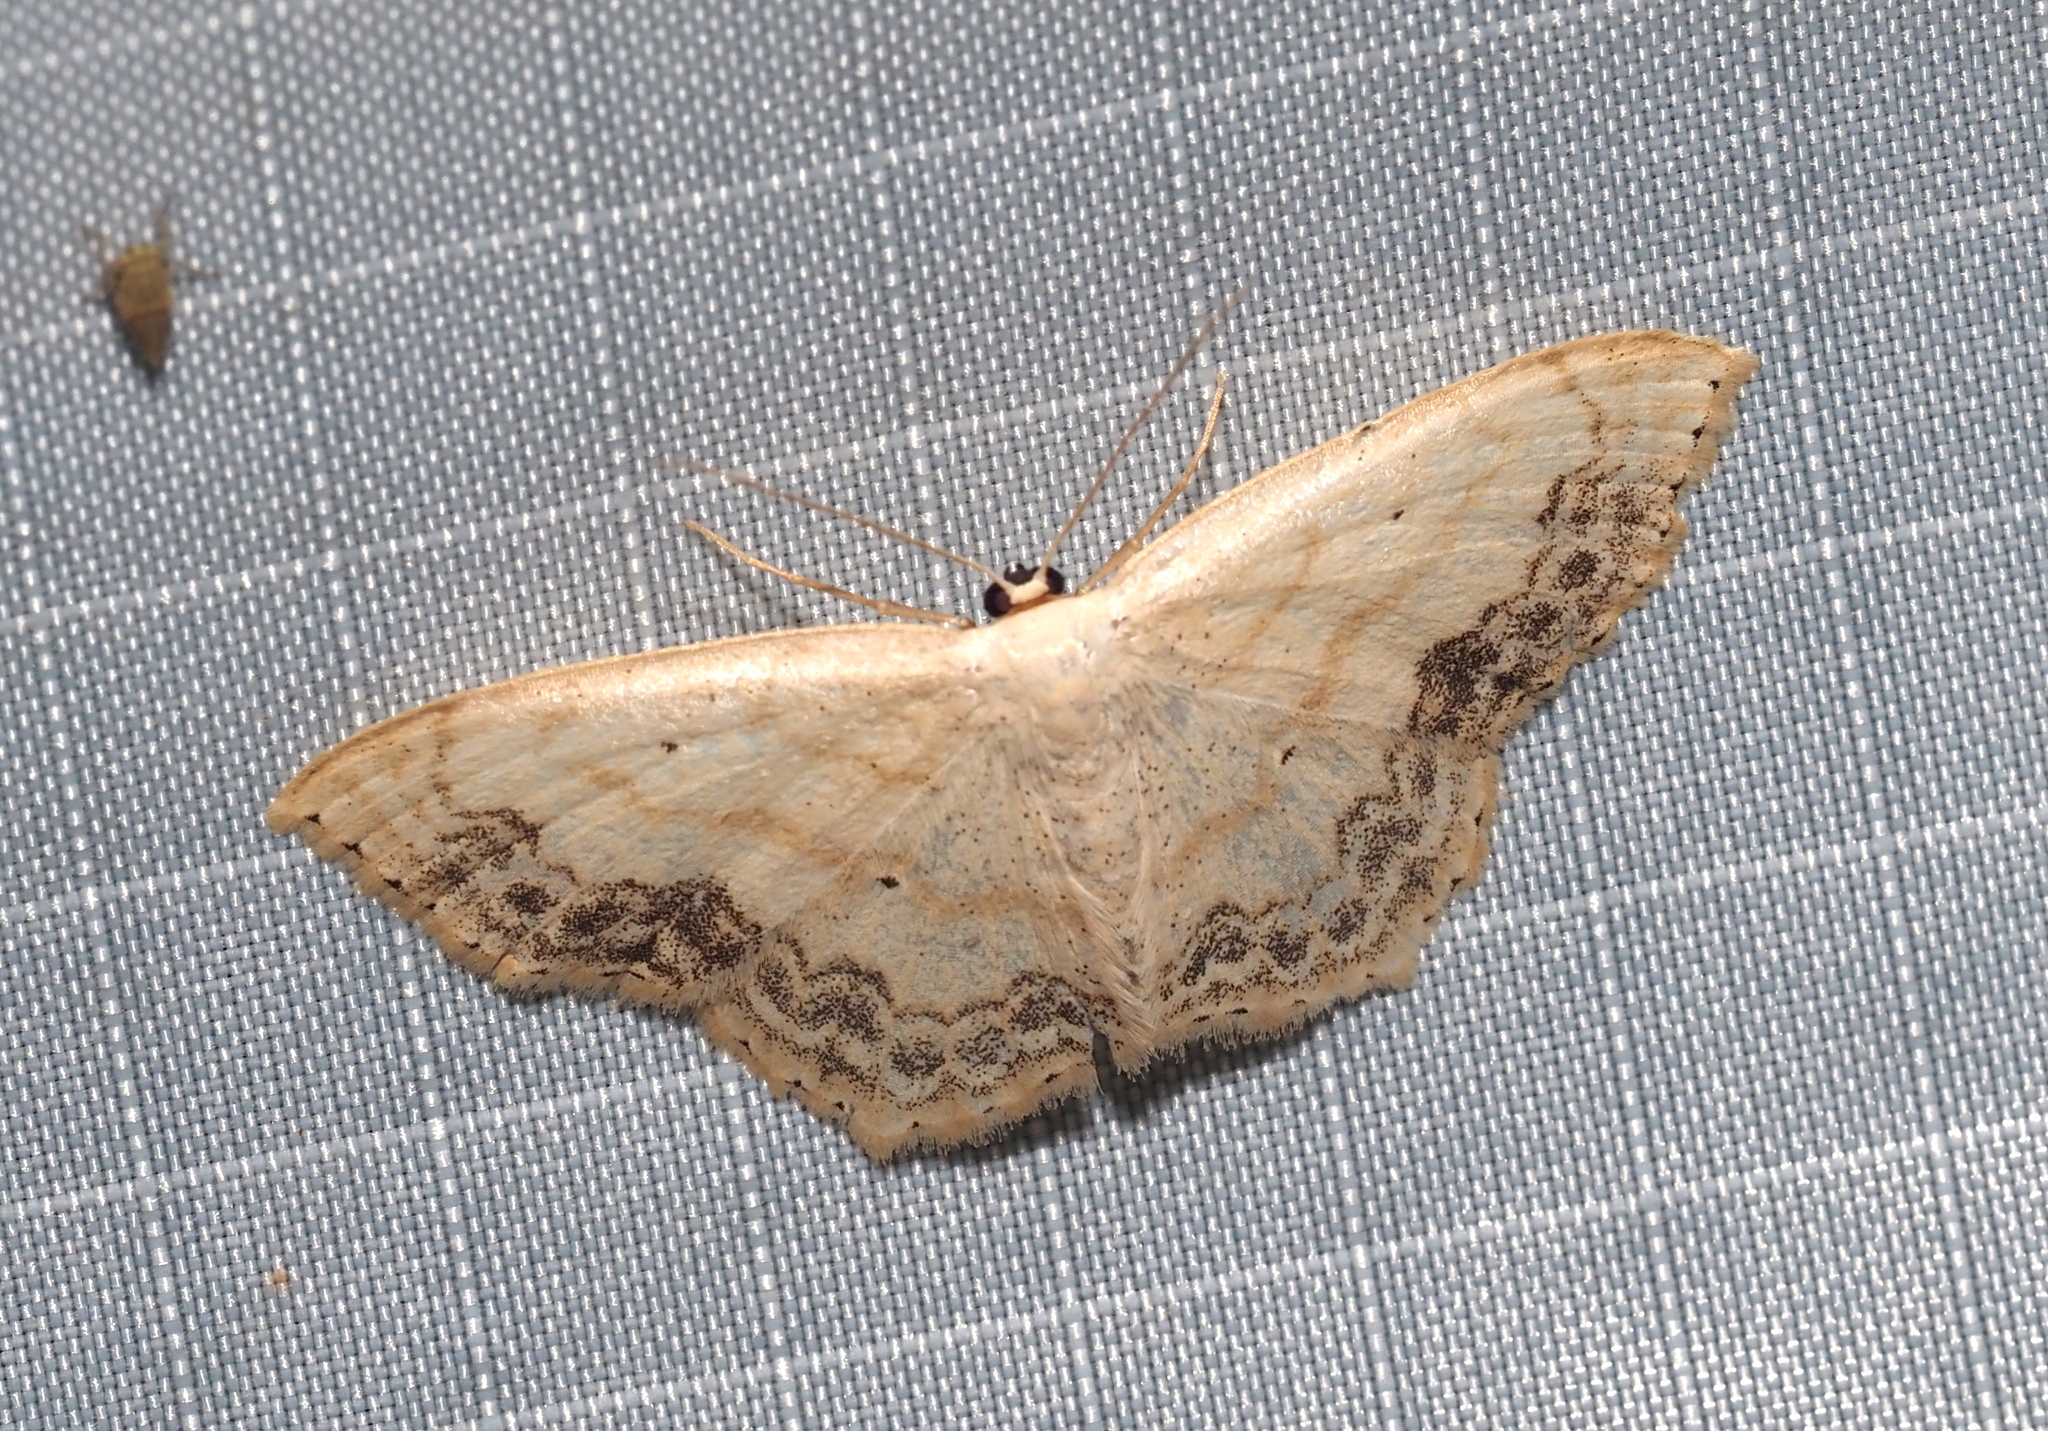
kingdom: Animalia
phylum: Arthropoda
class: Insecta
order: Lepidoptera
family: Geometridae
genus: Scopula
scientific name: Scopula limboundata
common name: Large lace border
